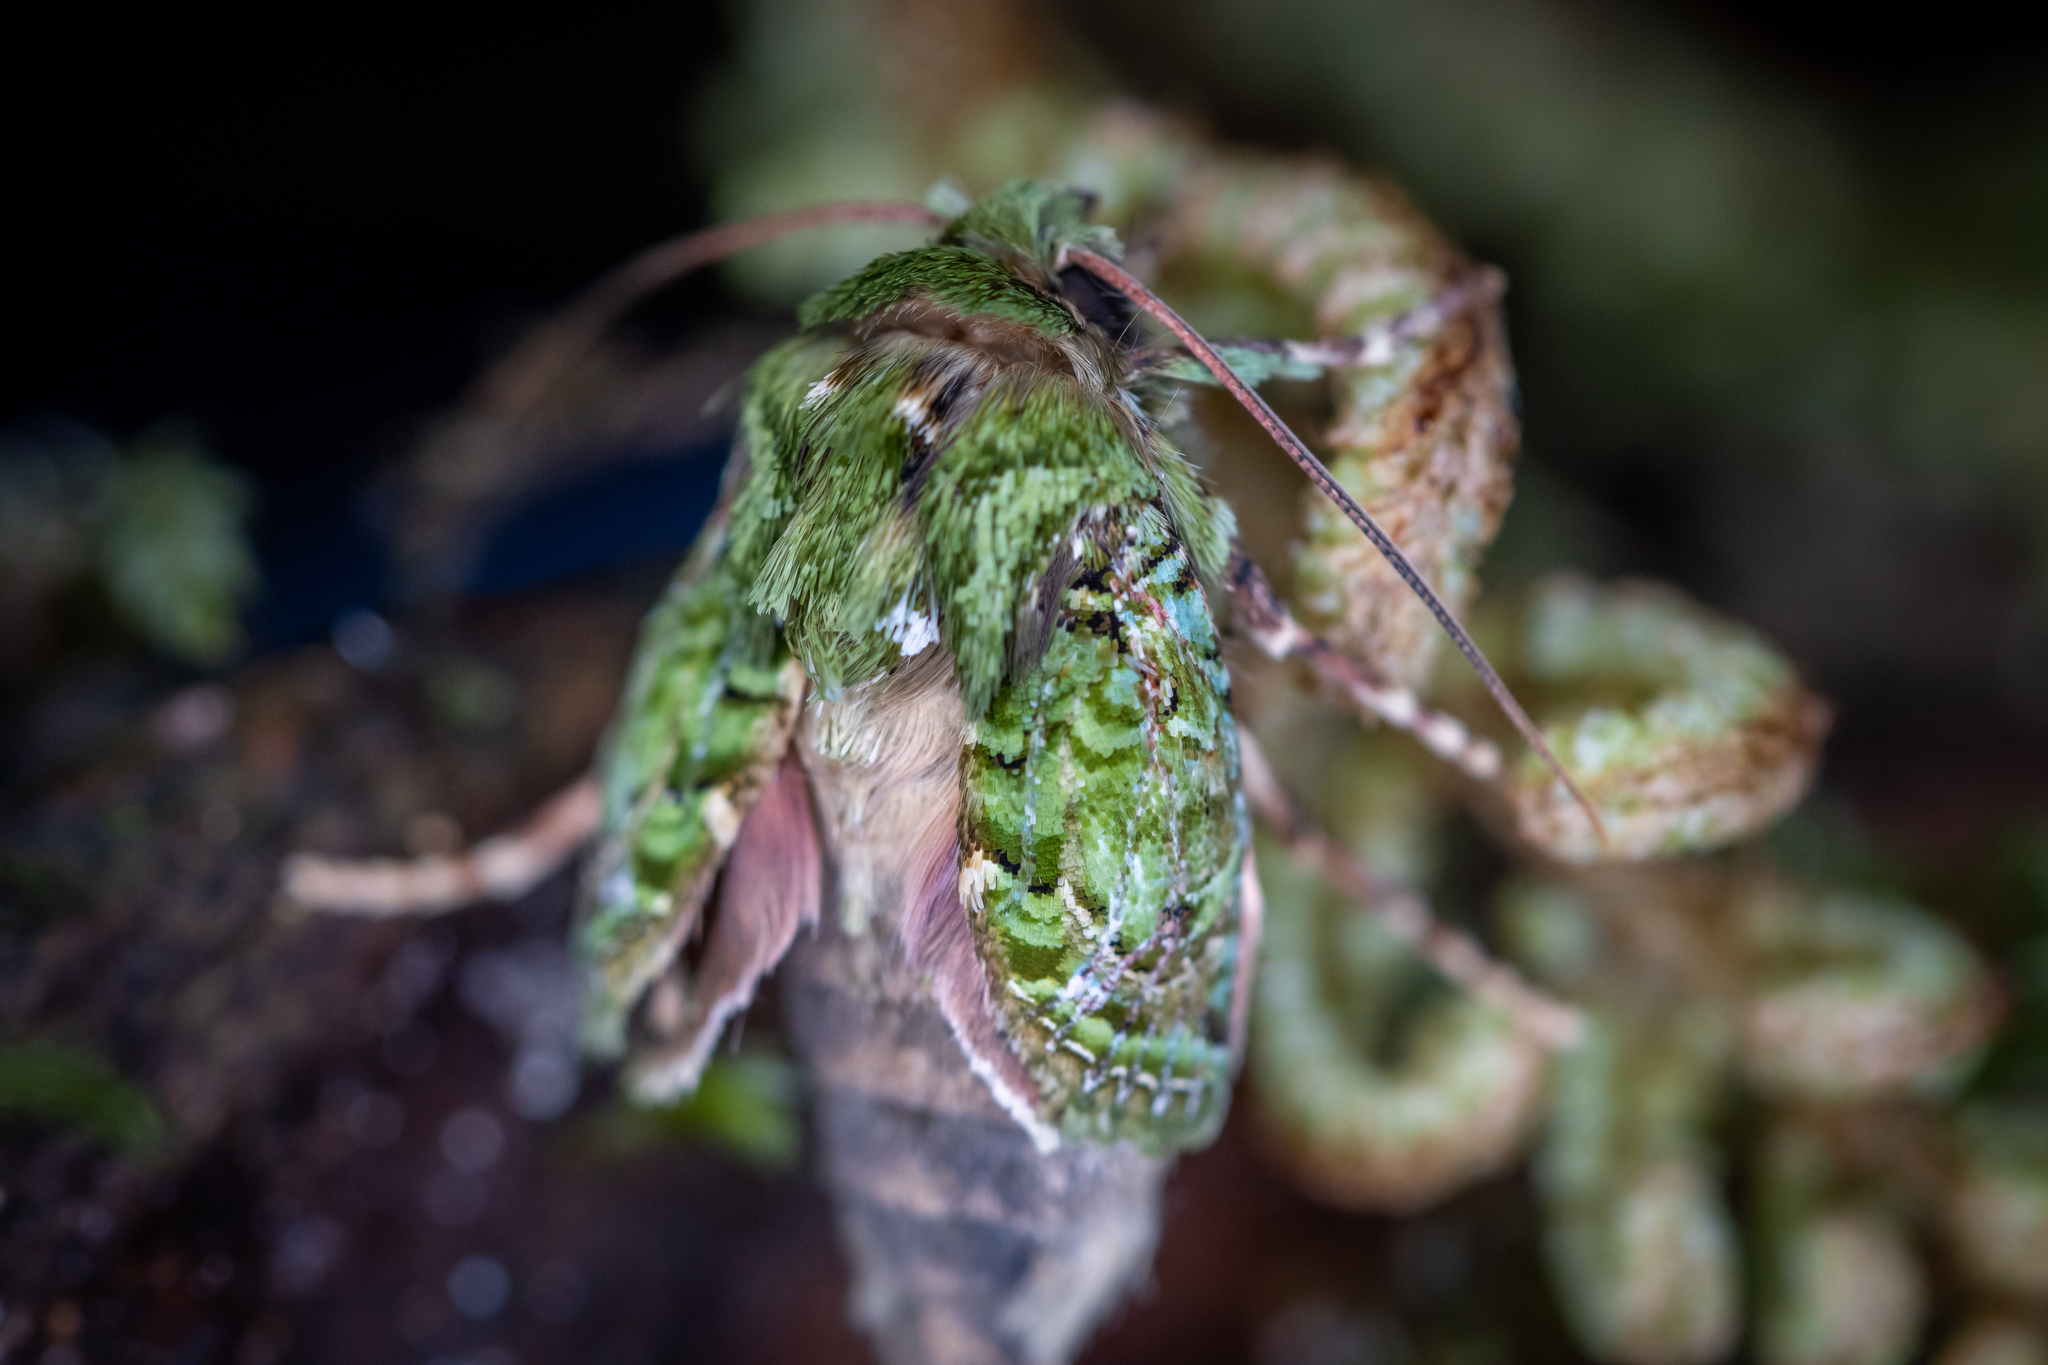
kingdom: Animalia
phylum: Arthropoda
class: Insecta
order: Lepidoptera
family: Noctuidae
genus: Feredayia
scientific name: Feredayia grammosa
